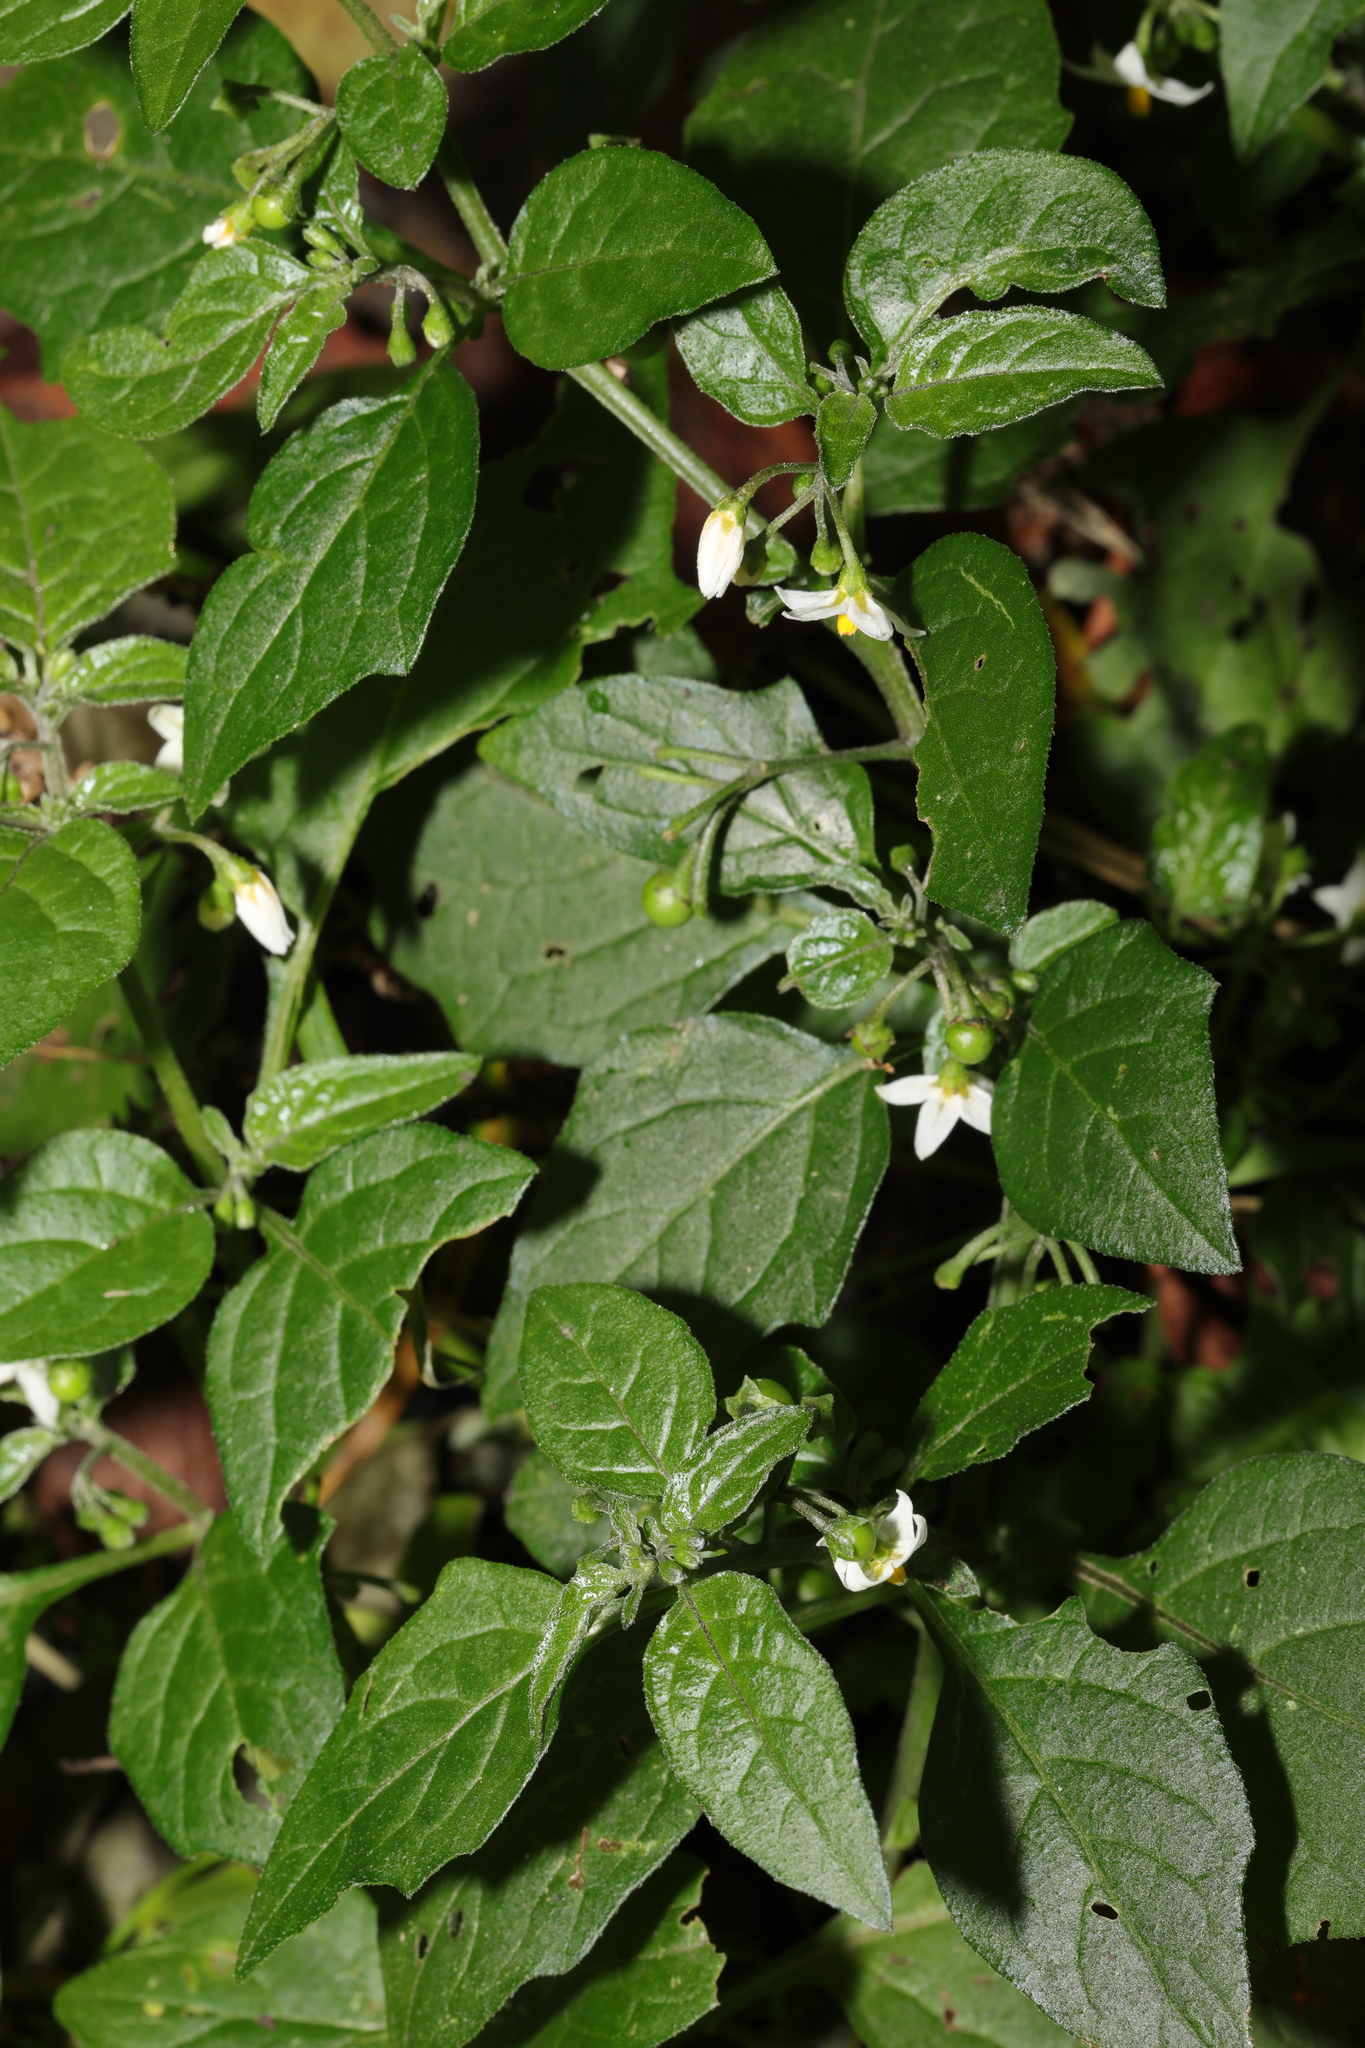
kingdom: Plantae
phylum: Tracheophyta
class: Magnoliopsida
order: Solanales
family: Solanaceae
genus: Solanum
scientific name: Solanum nigrum
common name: Black nightshade
